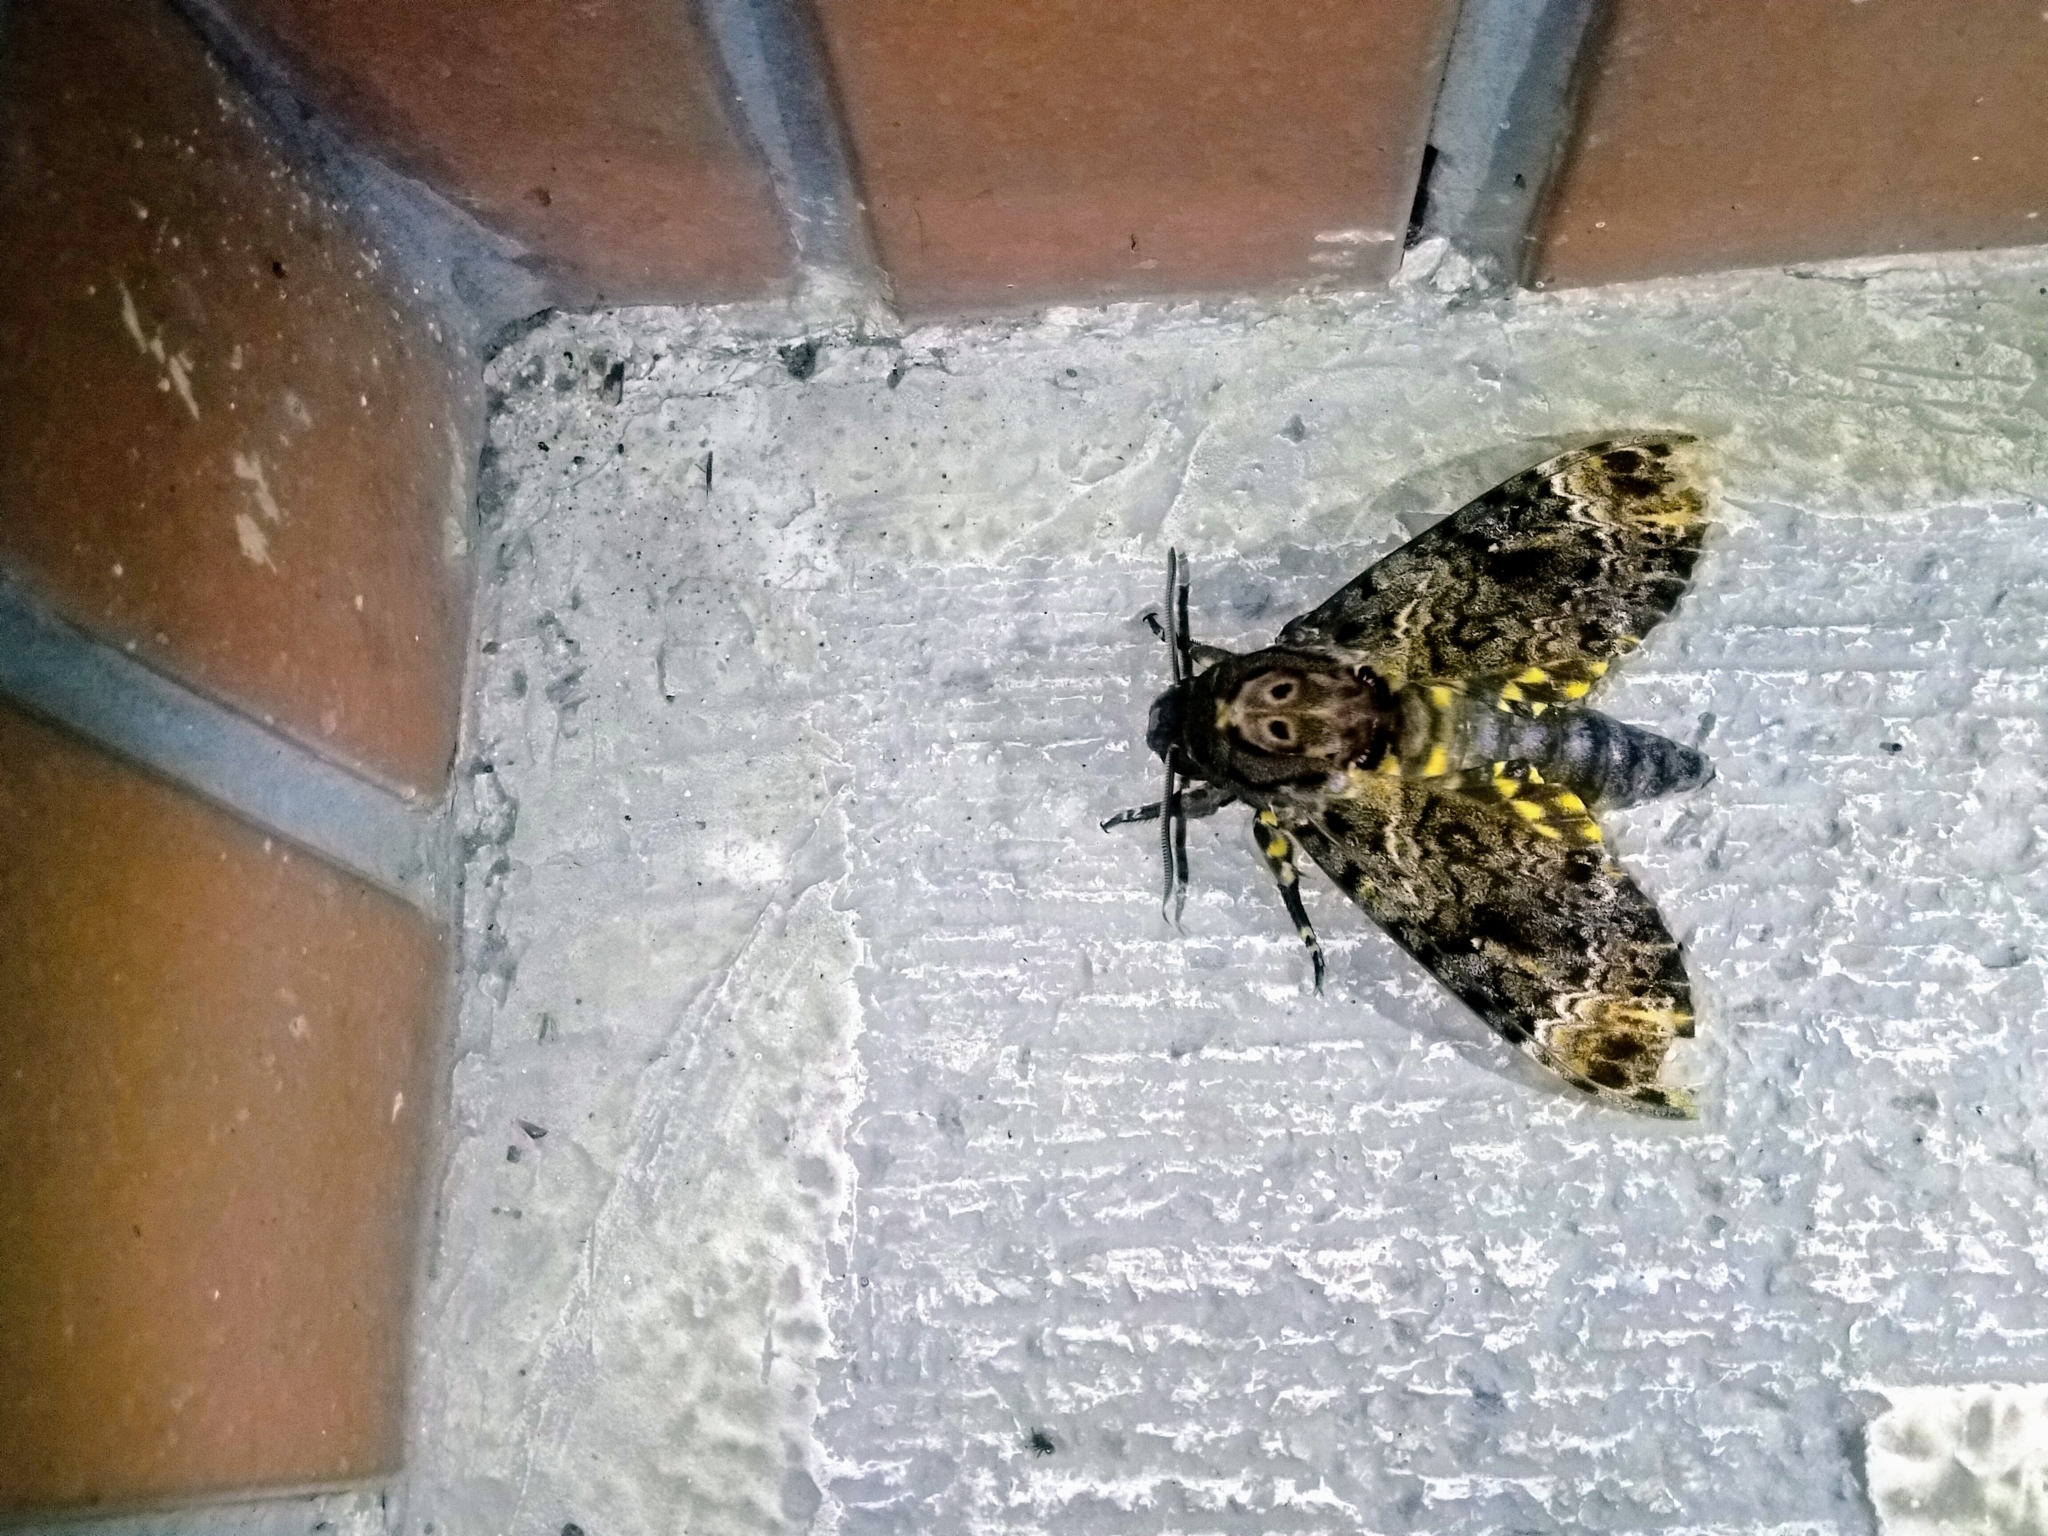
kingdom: Animalia
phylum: Arthropoda
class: Insecta
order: Lepidoptera
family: Sphingidae
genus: Acherontia
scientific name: Acherontia lachesis
